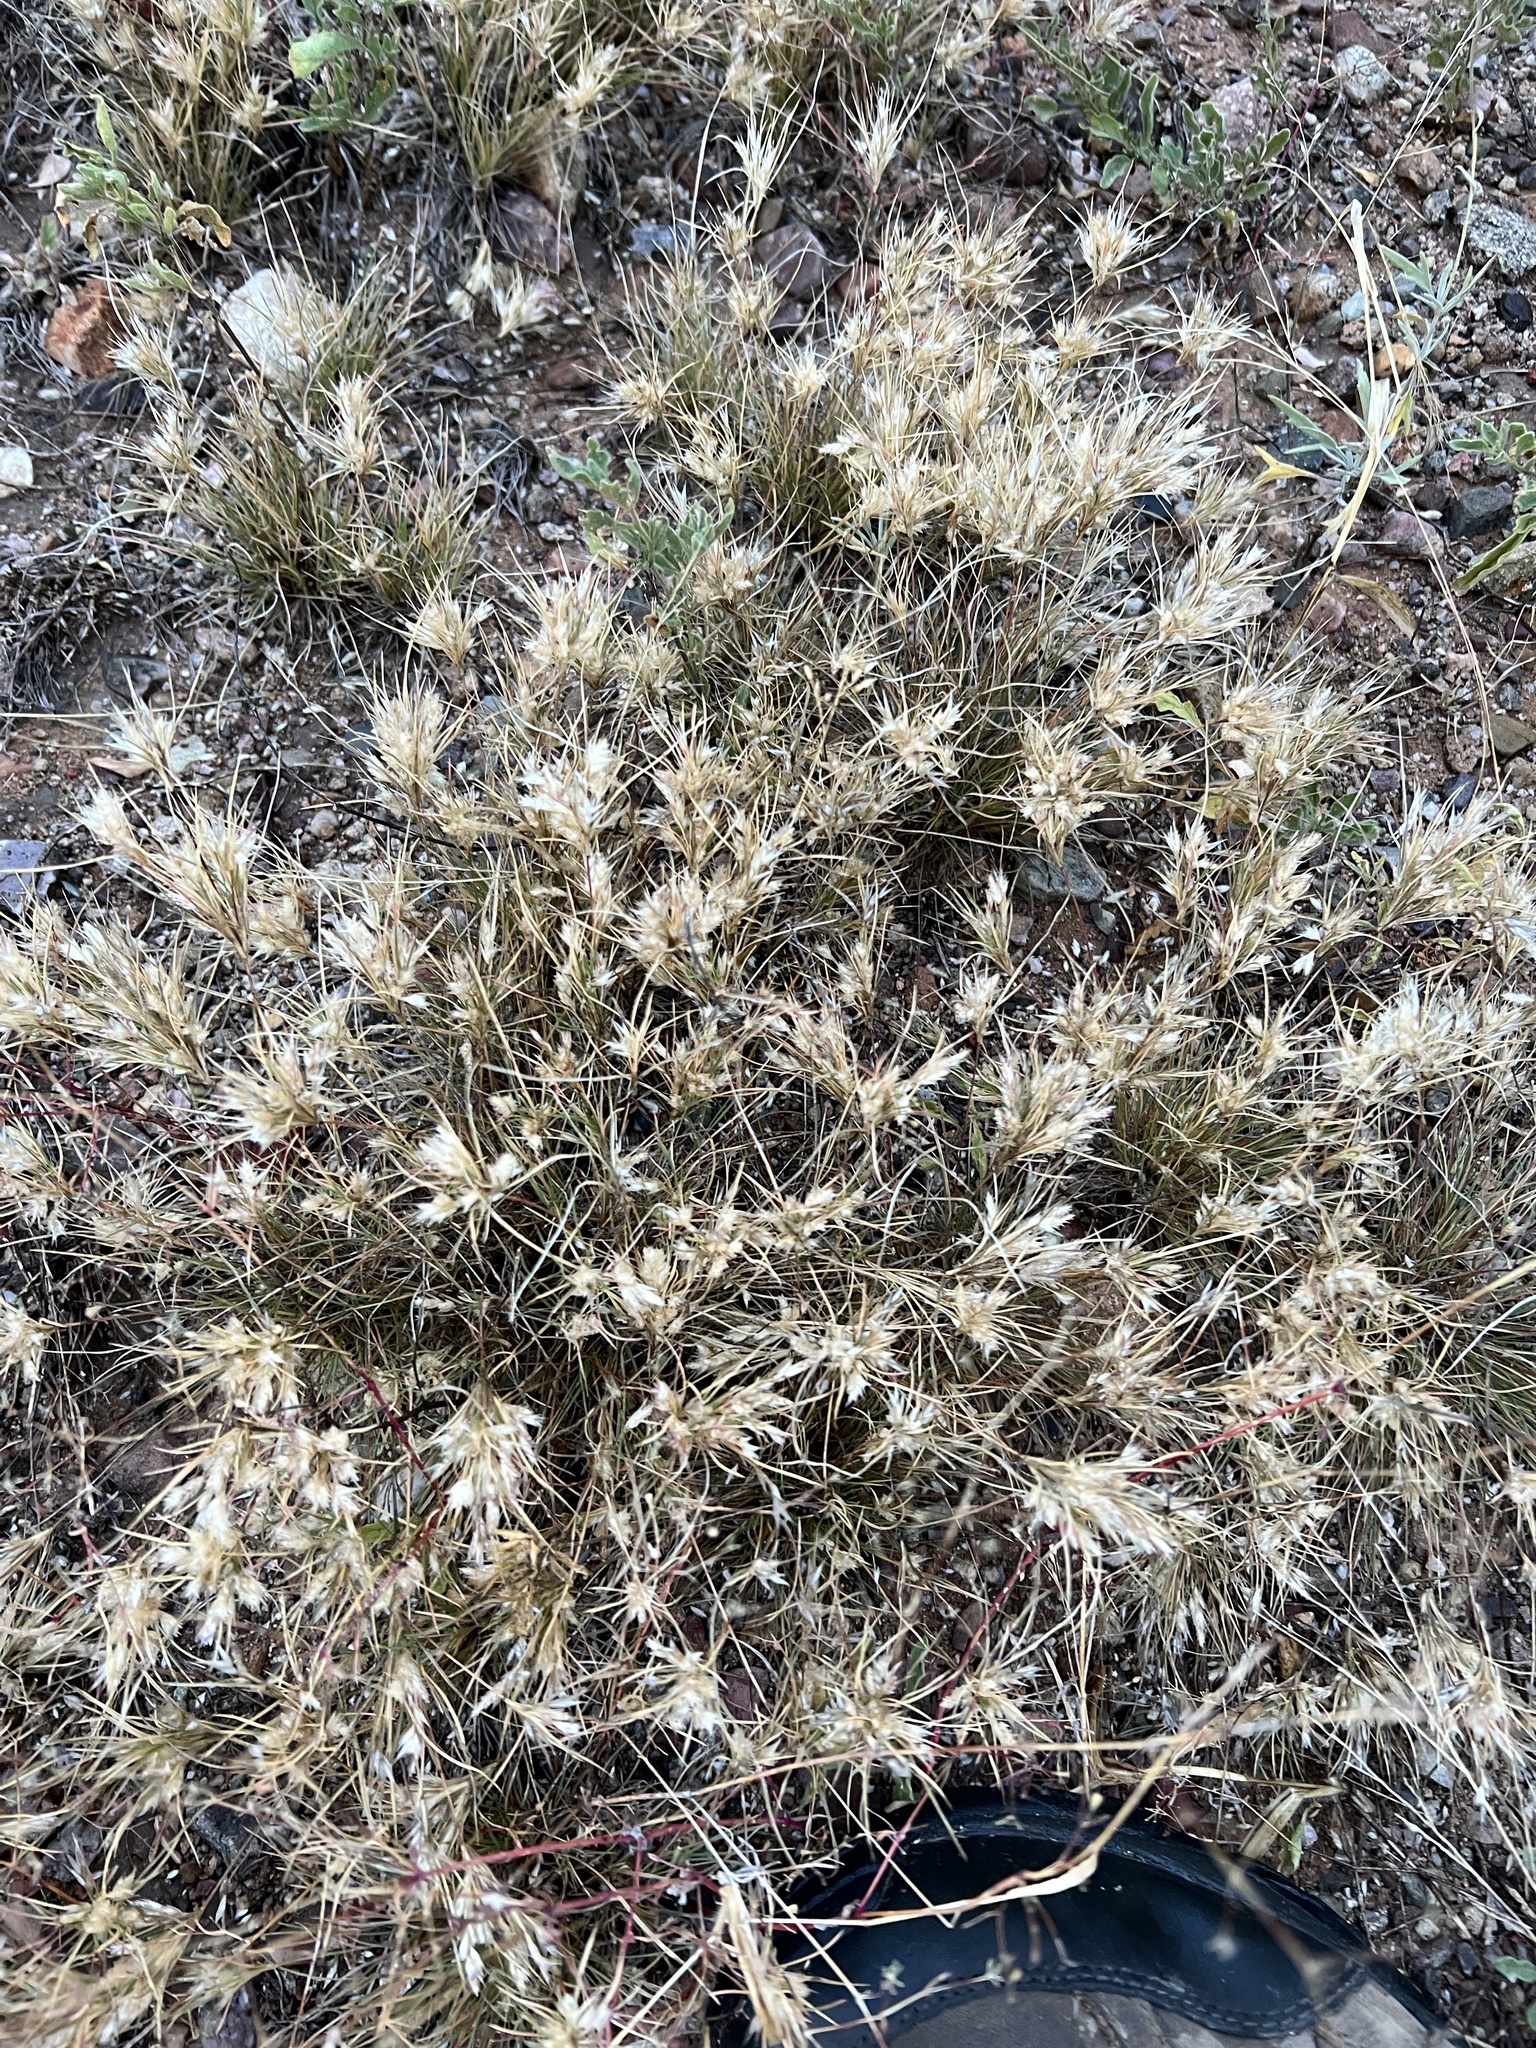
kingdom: Plantae
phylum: Tracheophyta
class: Liliopsida
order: Poales
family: Poaceae
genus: Dasyochloa
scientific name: Dasyochloa pulchella
